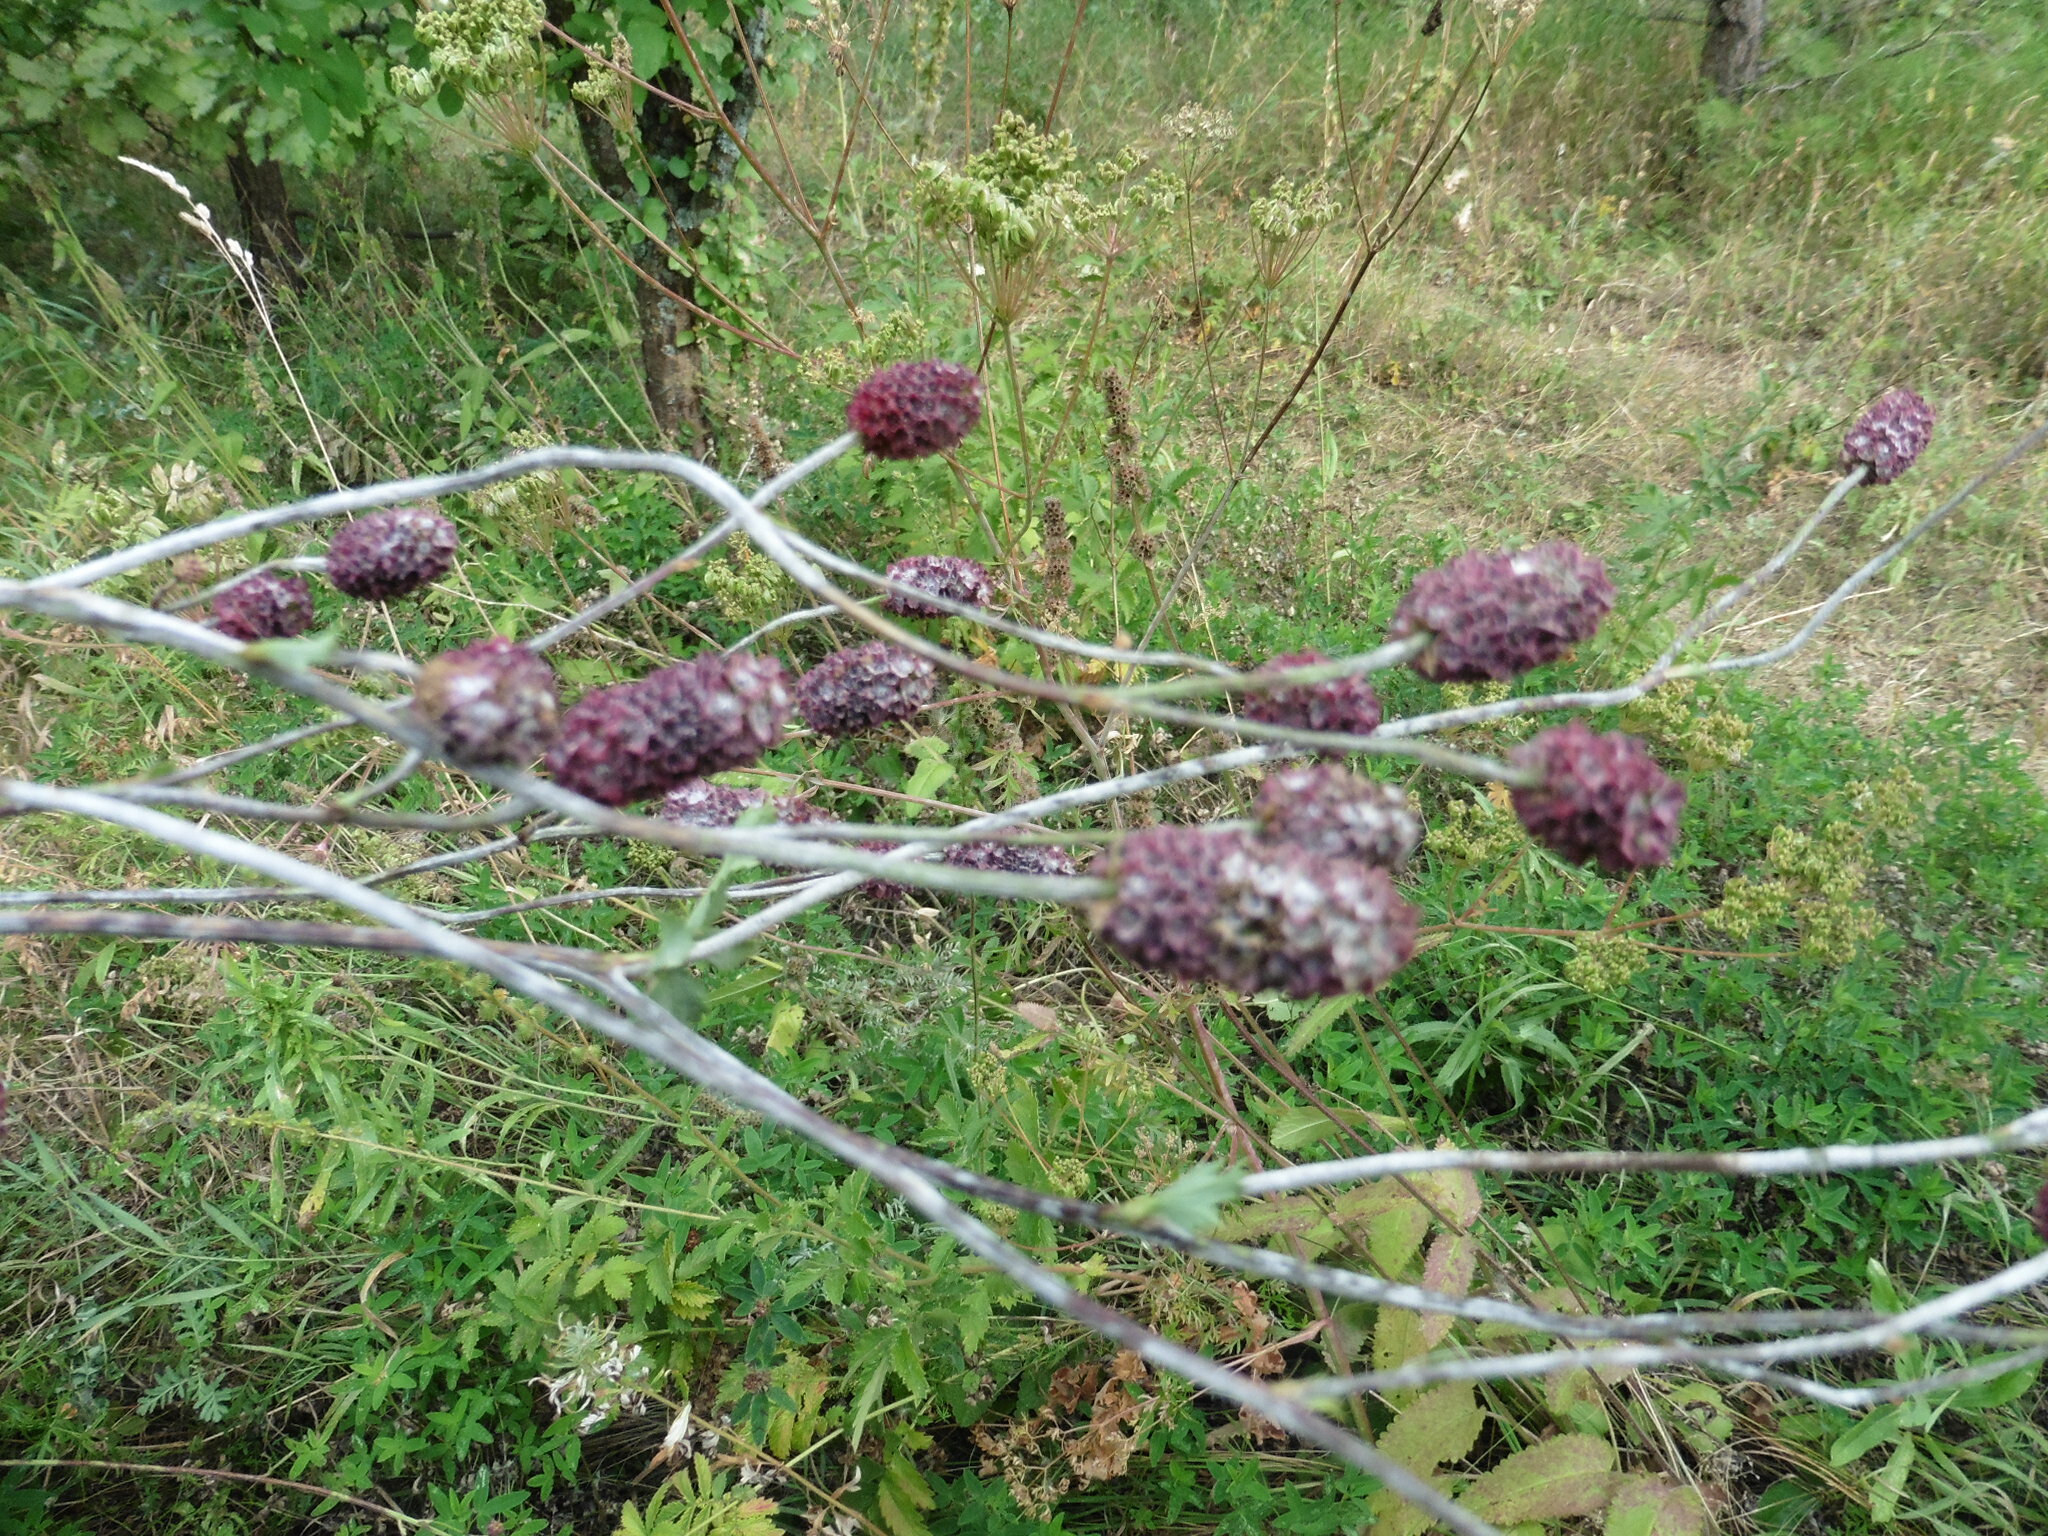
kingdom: Plantae
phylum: Tracheophyta
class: Magnoliopsida
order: Rosales
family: Rosaceae
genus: Sanguisorba
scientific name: Sanguisorba officinalis
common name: Great burnet
